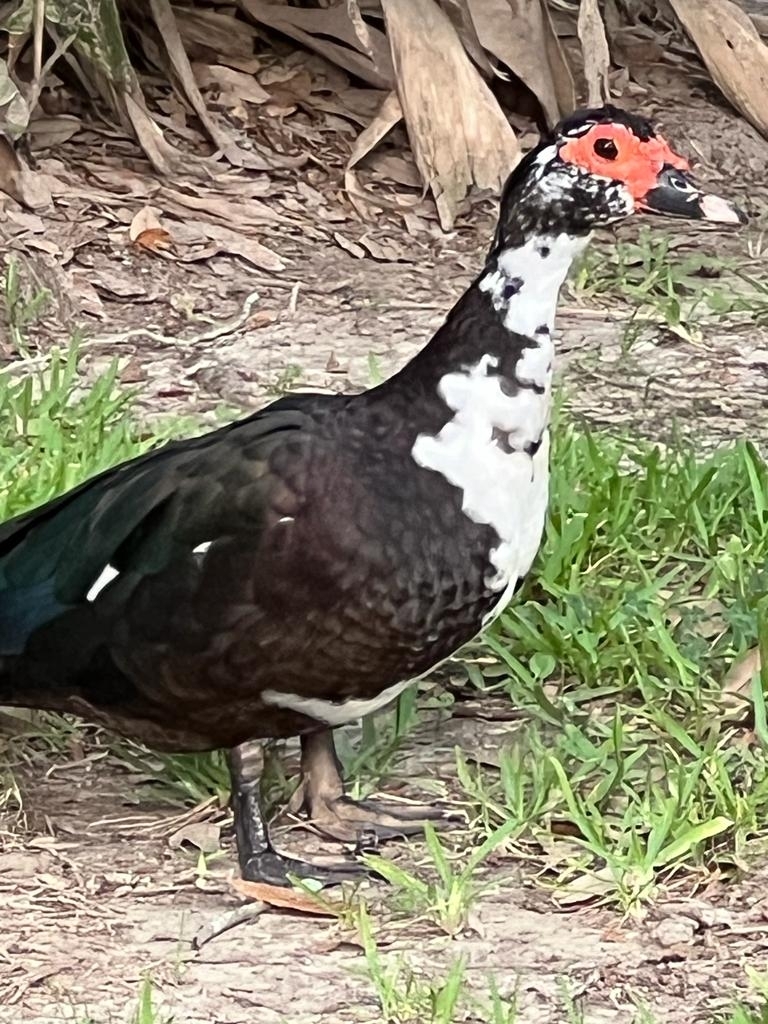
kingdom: Animalia
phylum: Chordata
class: Aves
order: Anseriformes
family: Anatidae
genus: Cairina
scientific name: Cairina moschata
